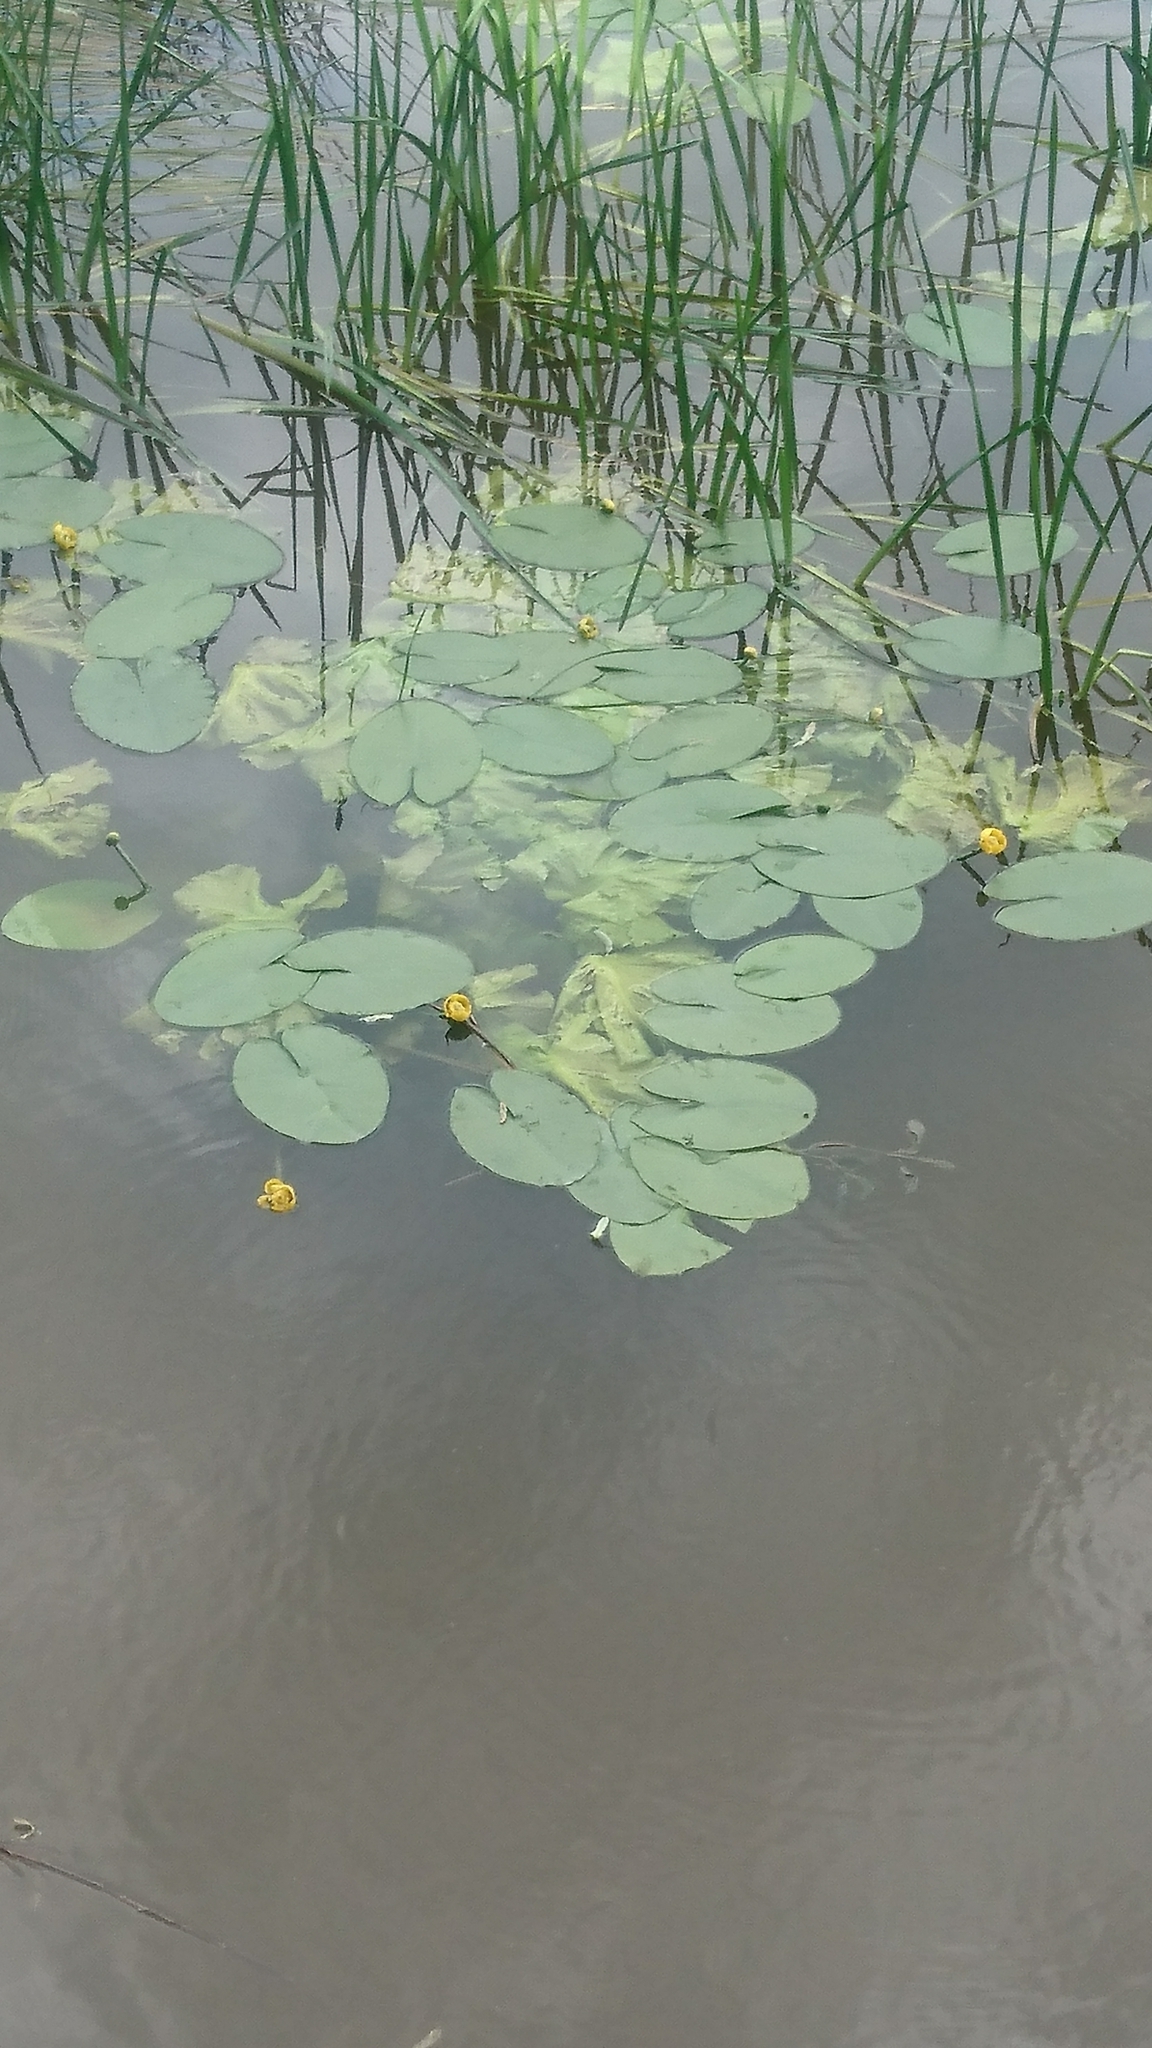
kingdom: Plantae
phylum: Tracheophyta
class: Magnoliopsida
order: Nymphaeales
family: Nymphaeaceae
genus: Nuphar
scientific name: Nuphar lutea
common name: Yellow water-lily
